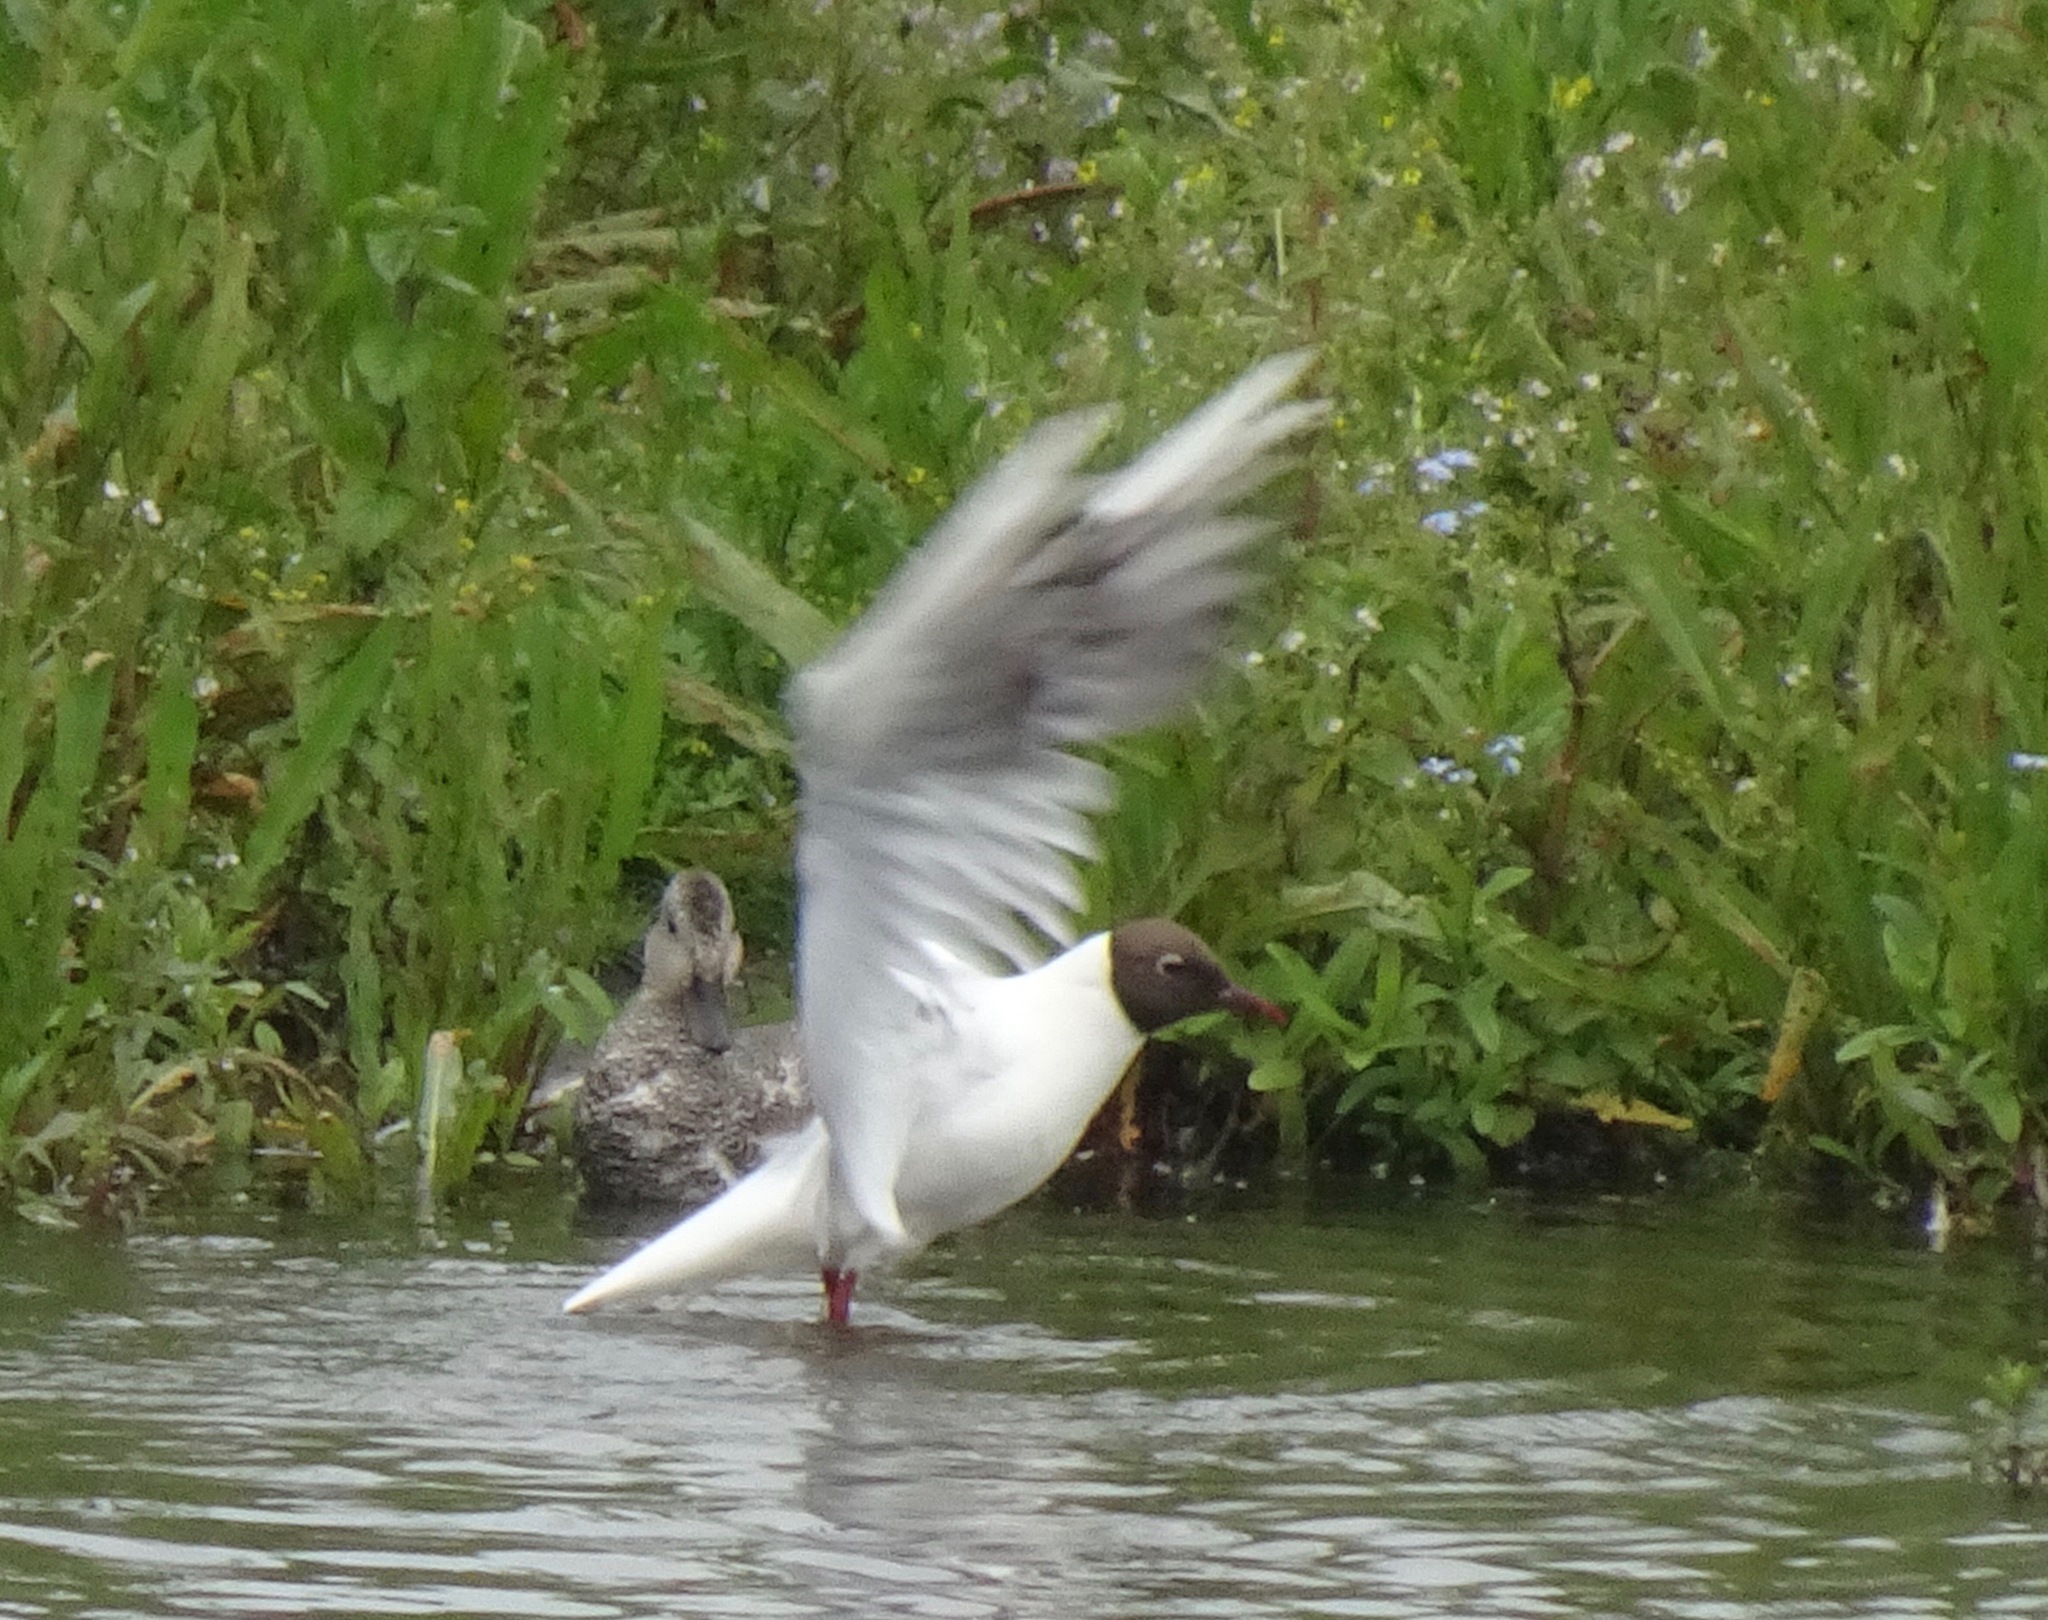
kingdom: Animalia
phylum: Chordata
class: Aves
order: Charadriiformes
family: Laridae
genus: Chroicocephalus
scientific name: Chroicocephalus ridibundus
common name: Black-headed gull
